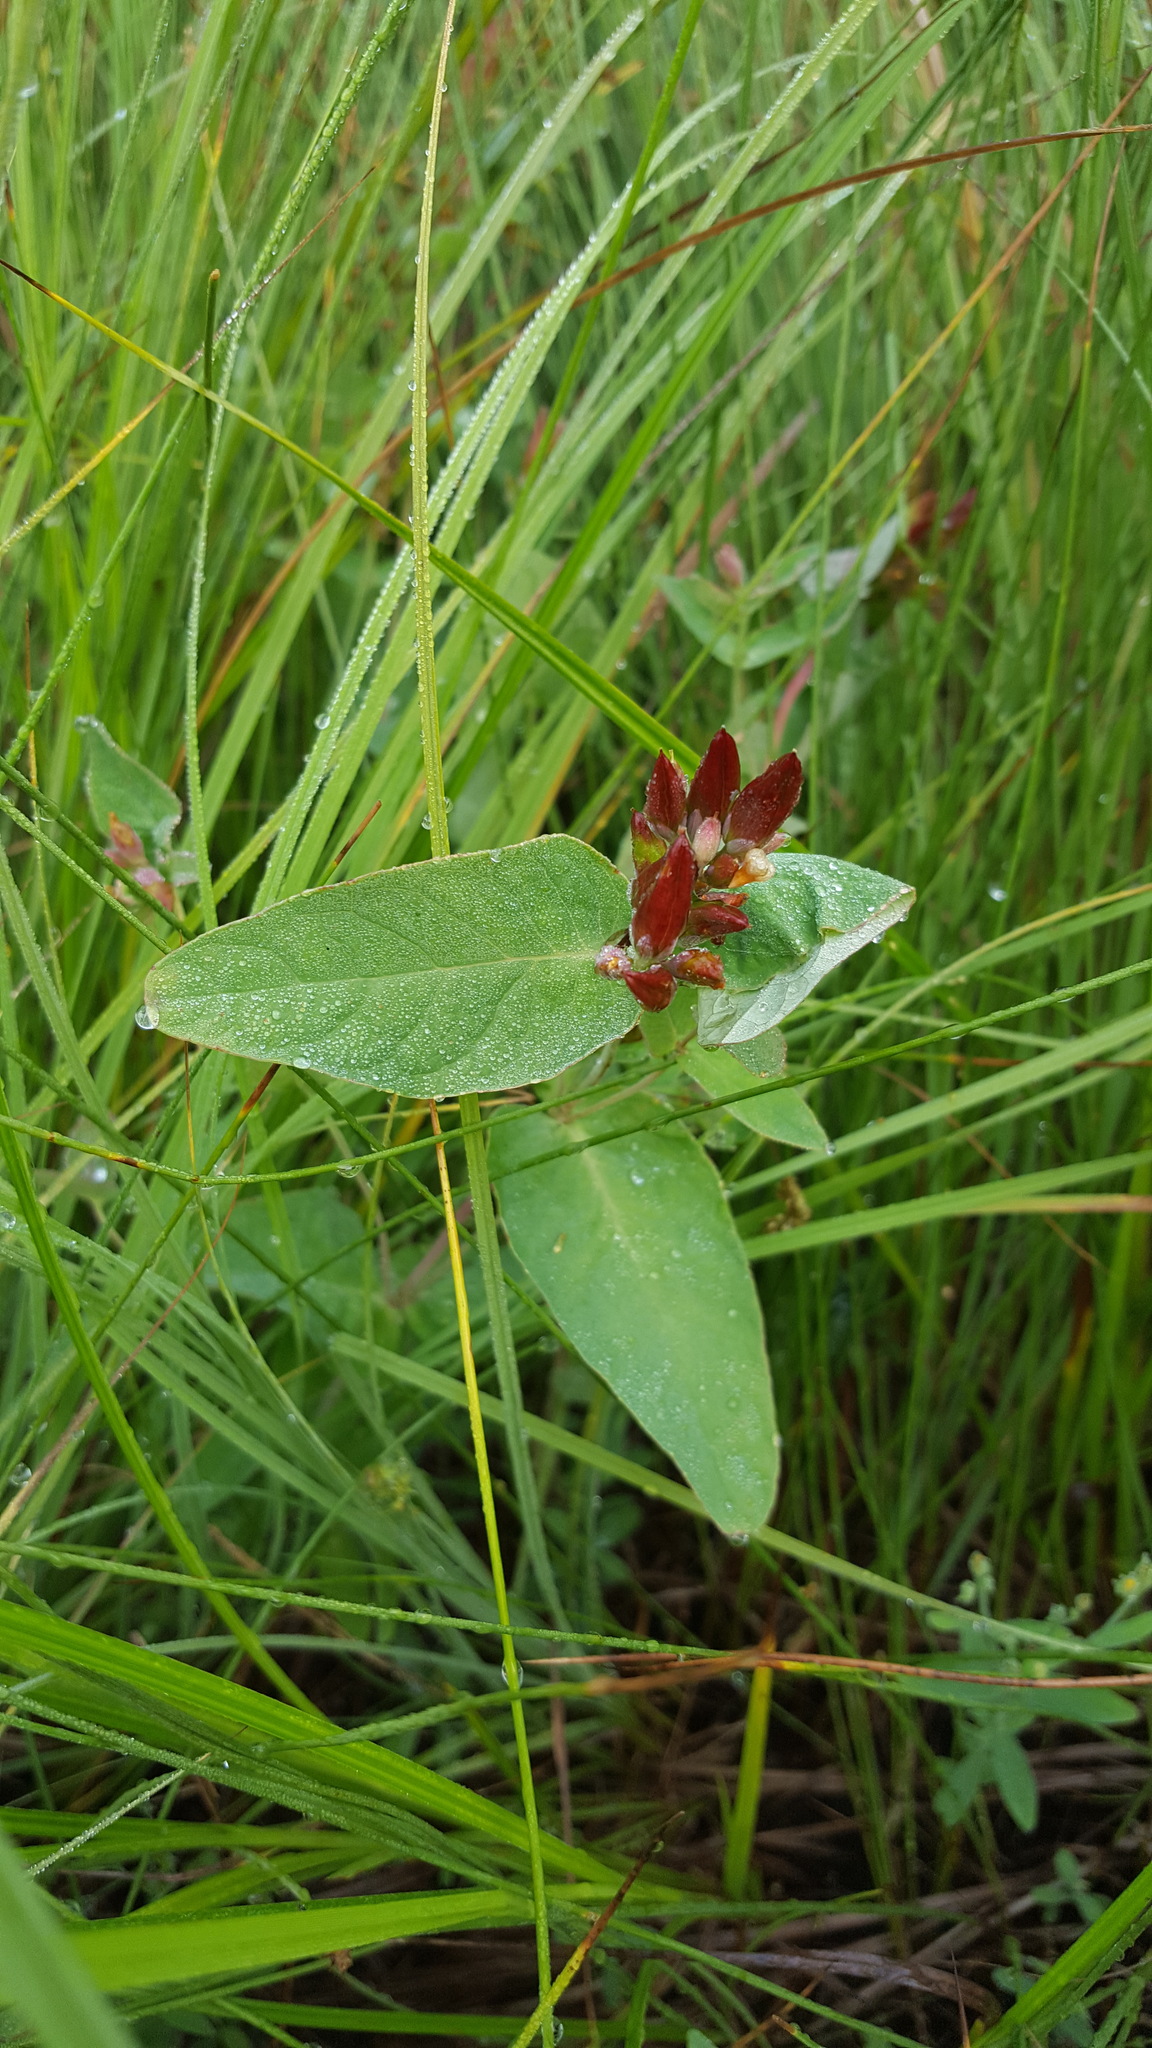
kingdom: Plantae
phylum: Tracheophyta
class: Magnoliopsida
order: Malpighiales
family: Hypericaceae
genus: Triadenum
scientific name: Triadenum fraseri
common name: Fraser's marsh st. johnswort
